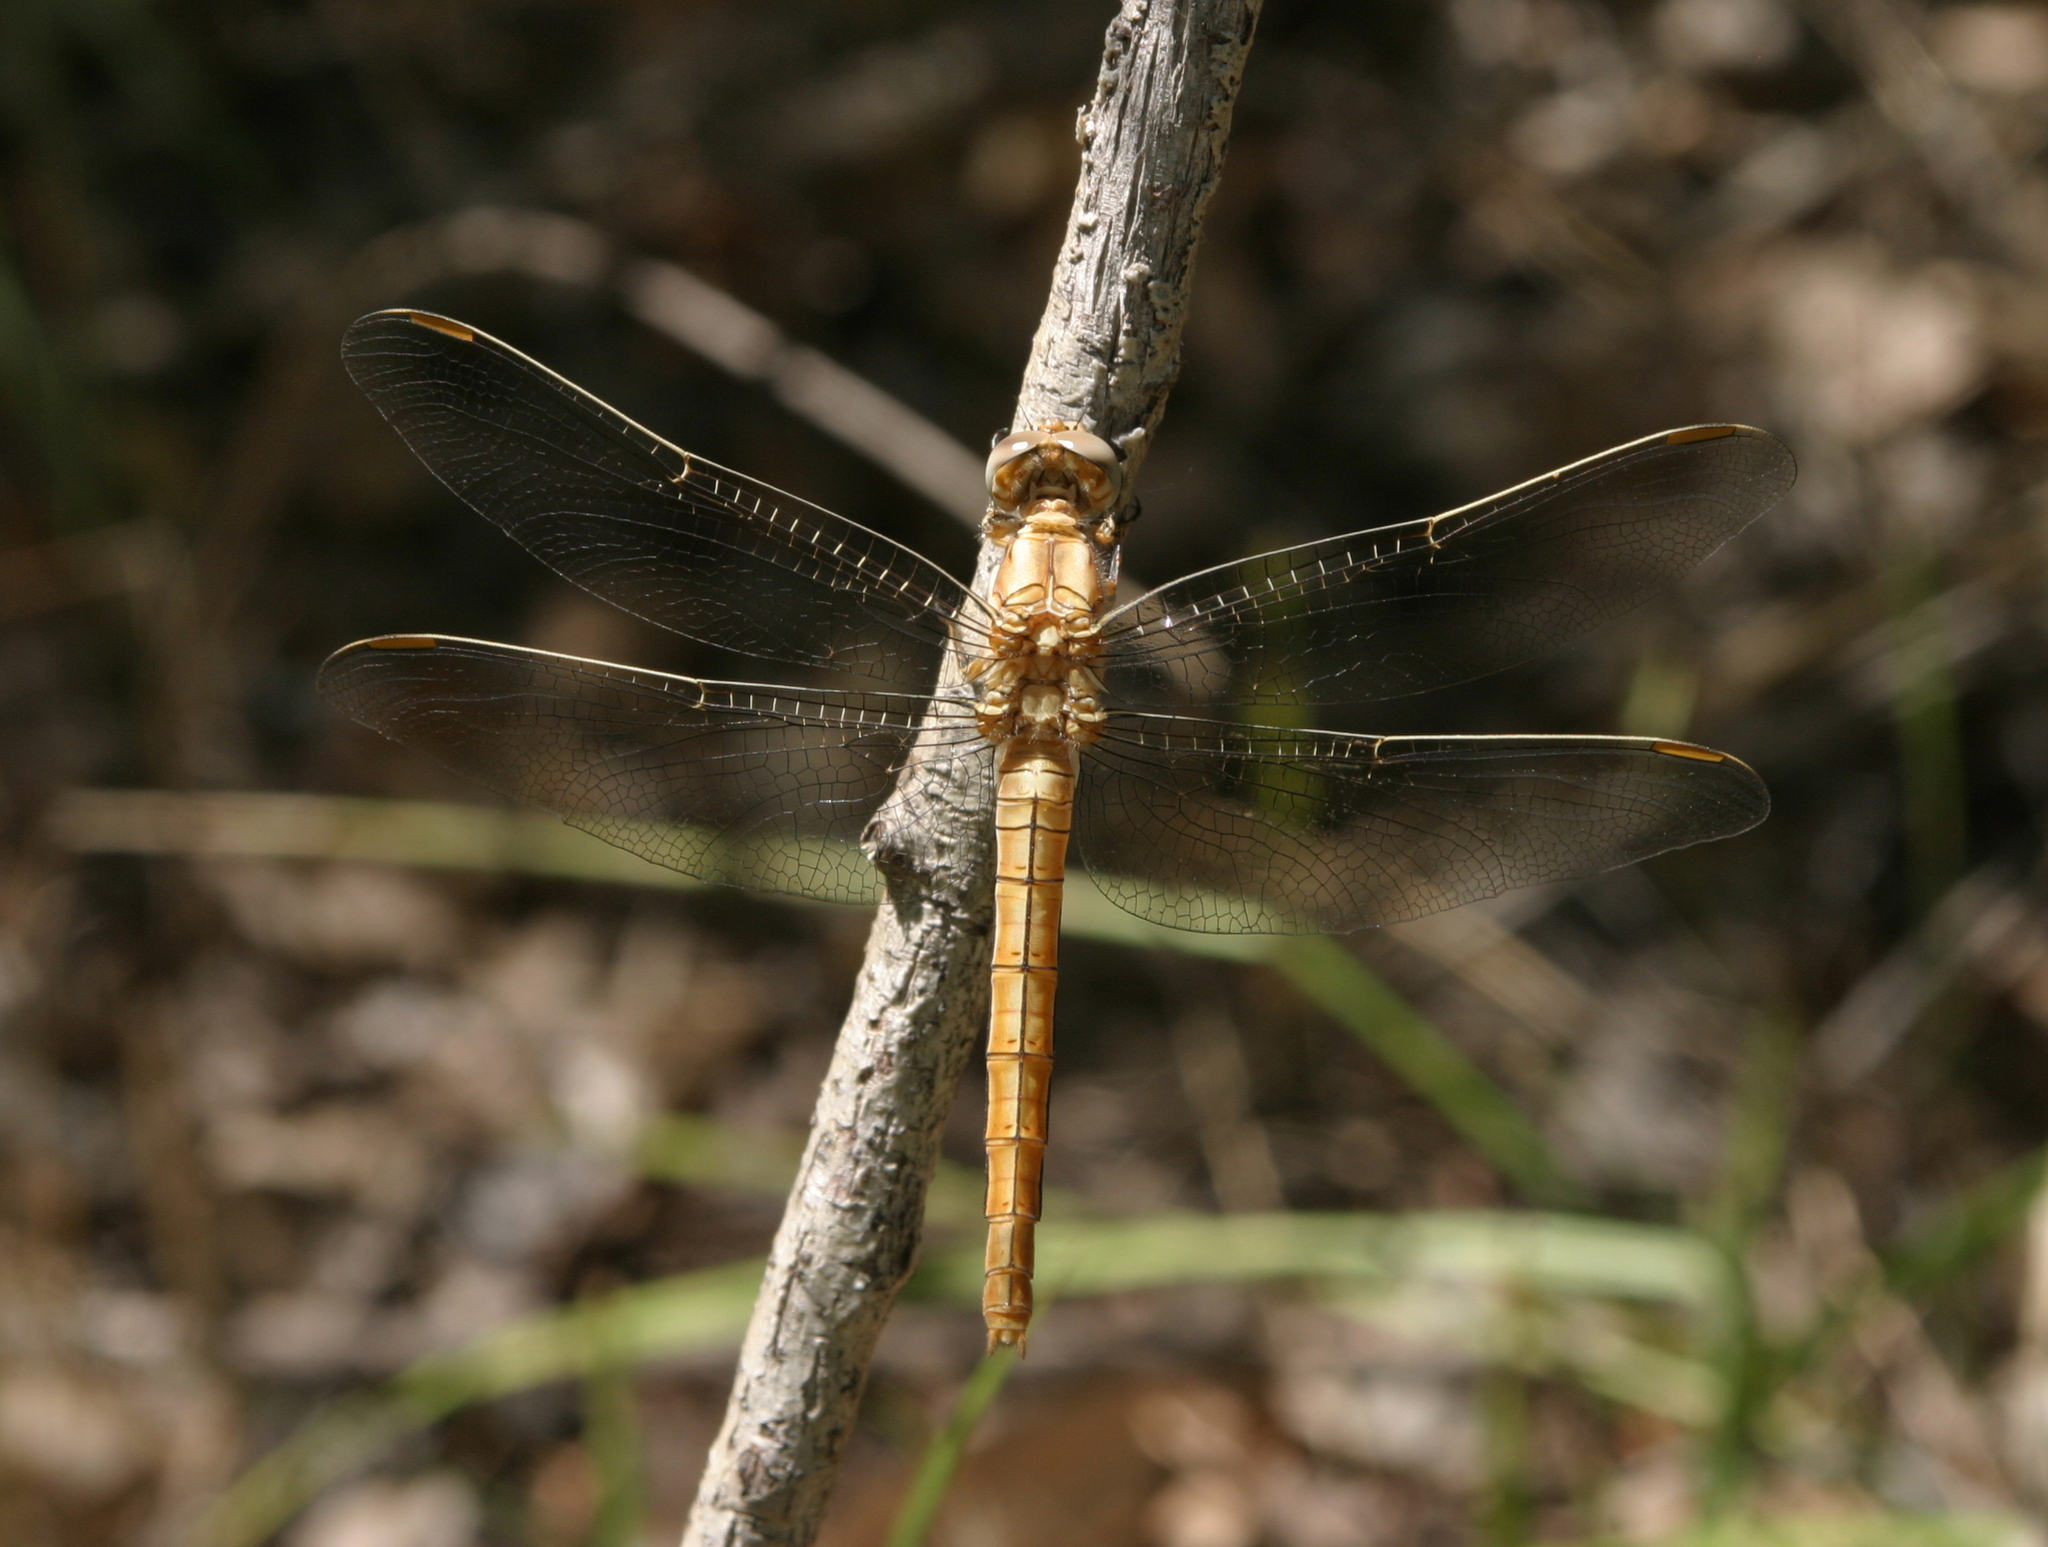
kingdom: Animalia
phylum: Arthropoda
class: Insecta
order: Odonata
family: Libellulidae
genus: Orthetrum
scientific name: Orthetrum brunneum
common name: Southern skimmer
